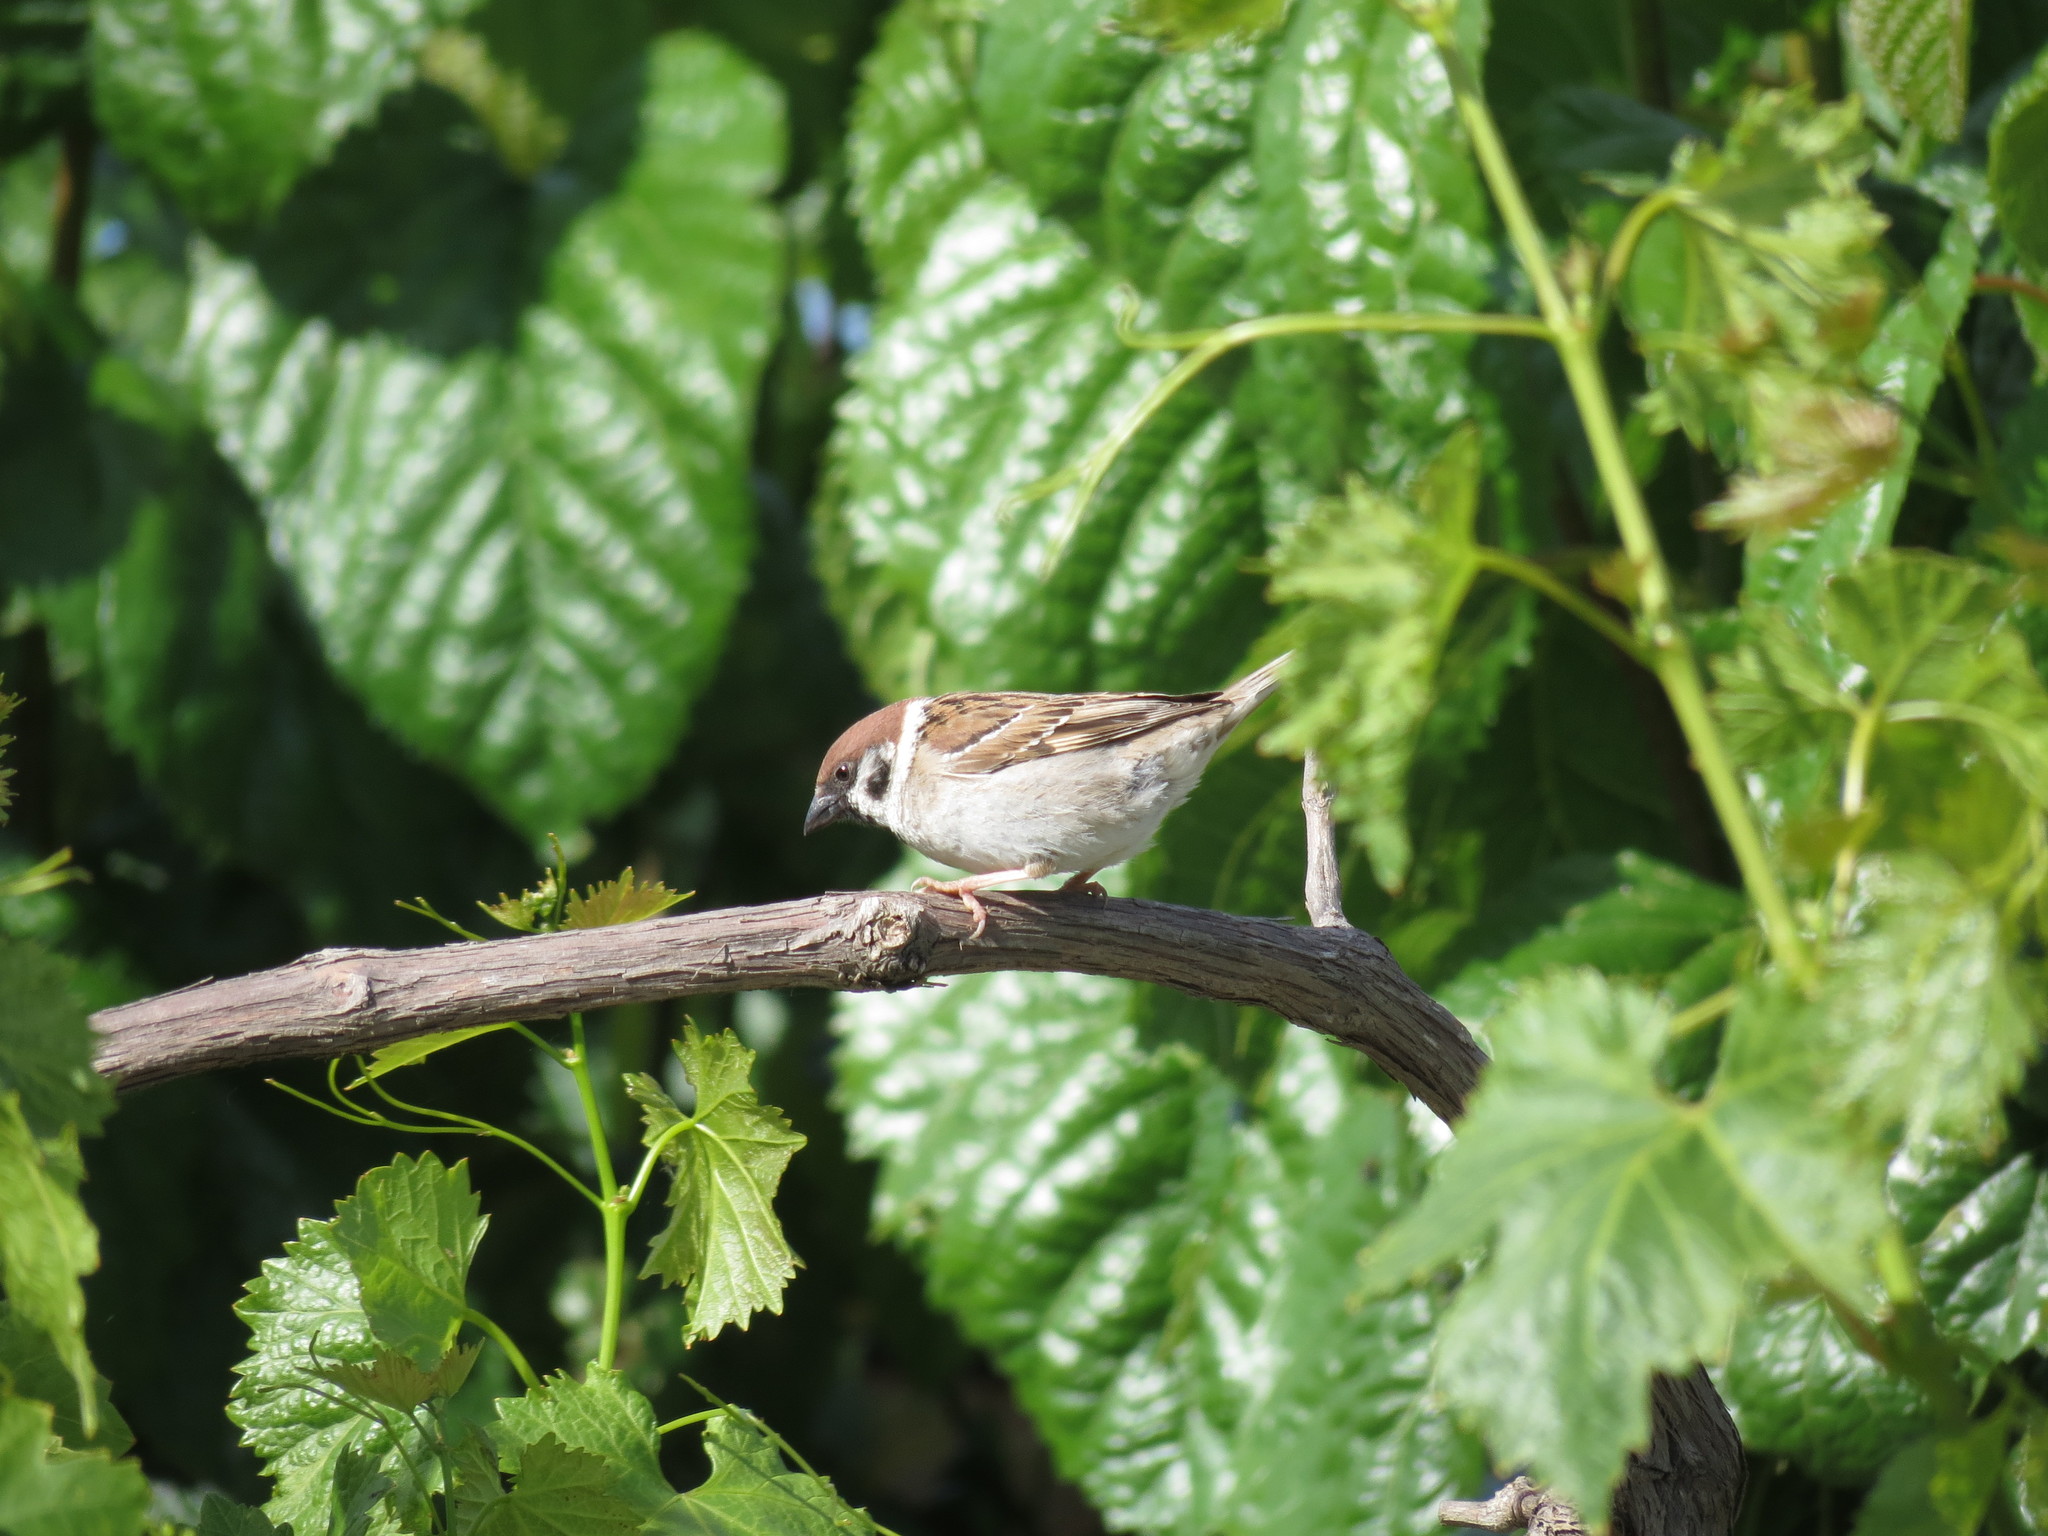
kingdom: Animalia
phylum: Chordata
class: Aves
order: Passeriformes
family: Passeridae
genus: Passer
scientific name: Passer montanus
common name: Eurasian tree sparrow
